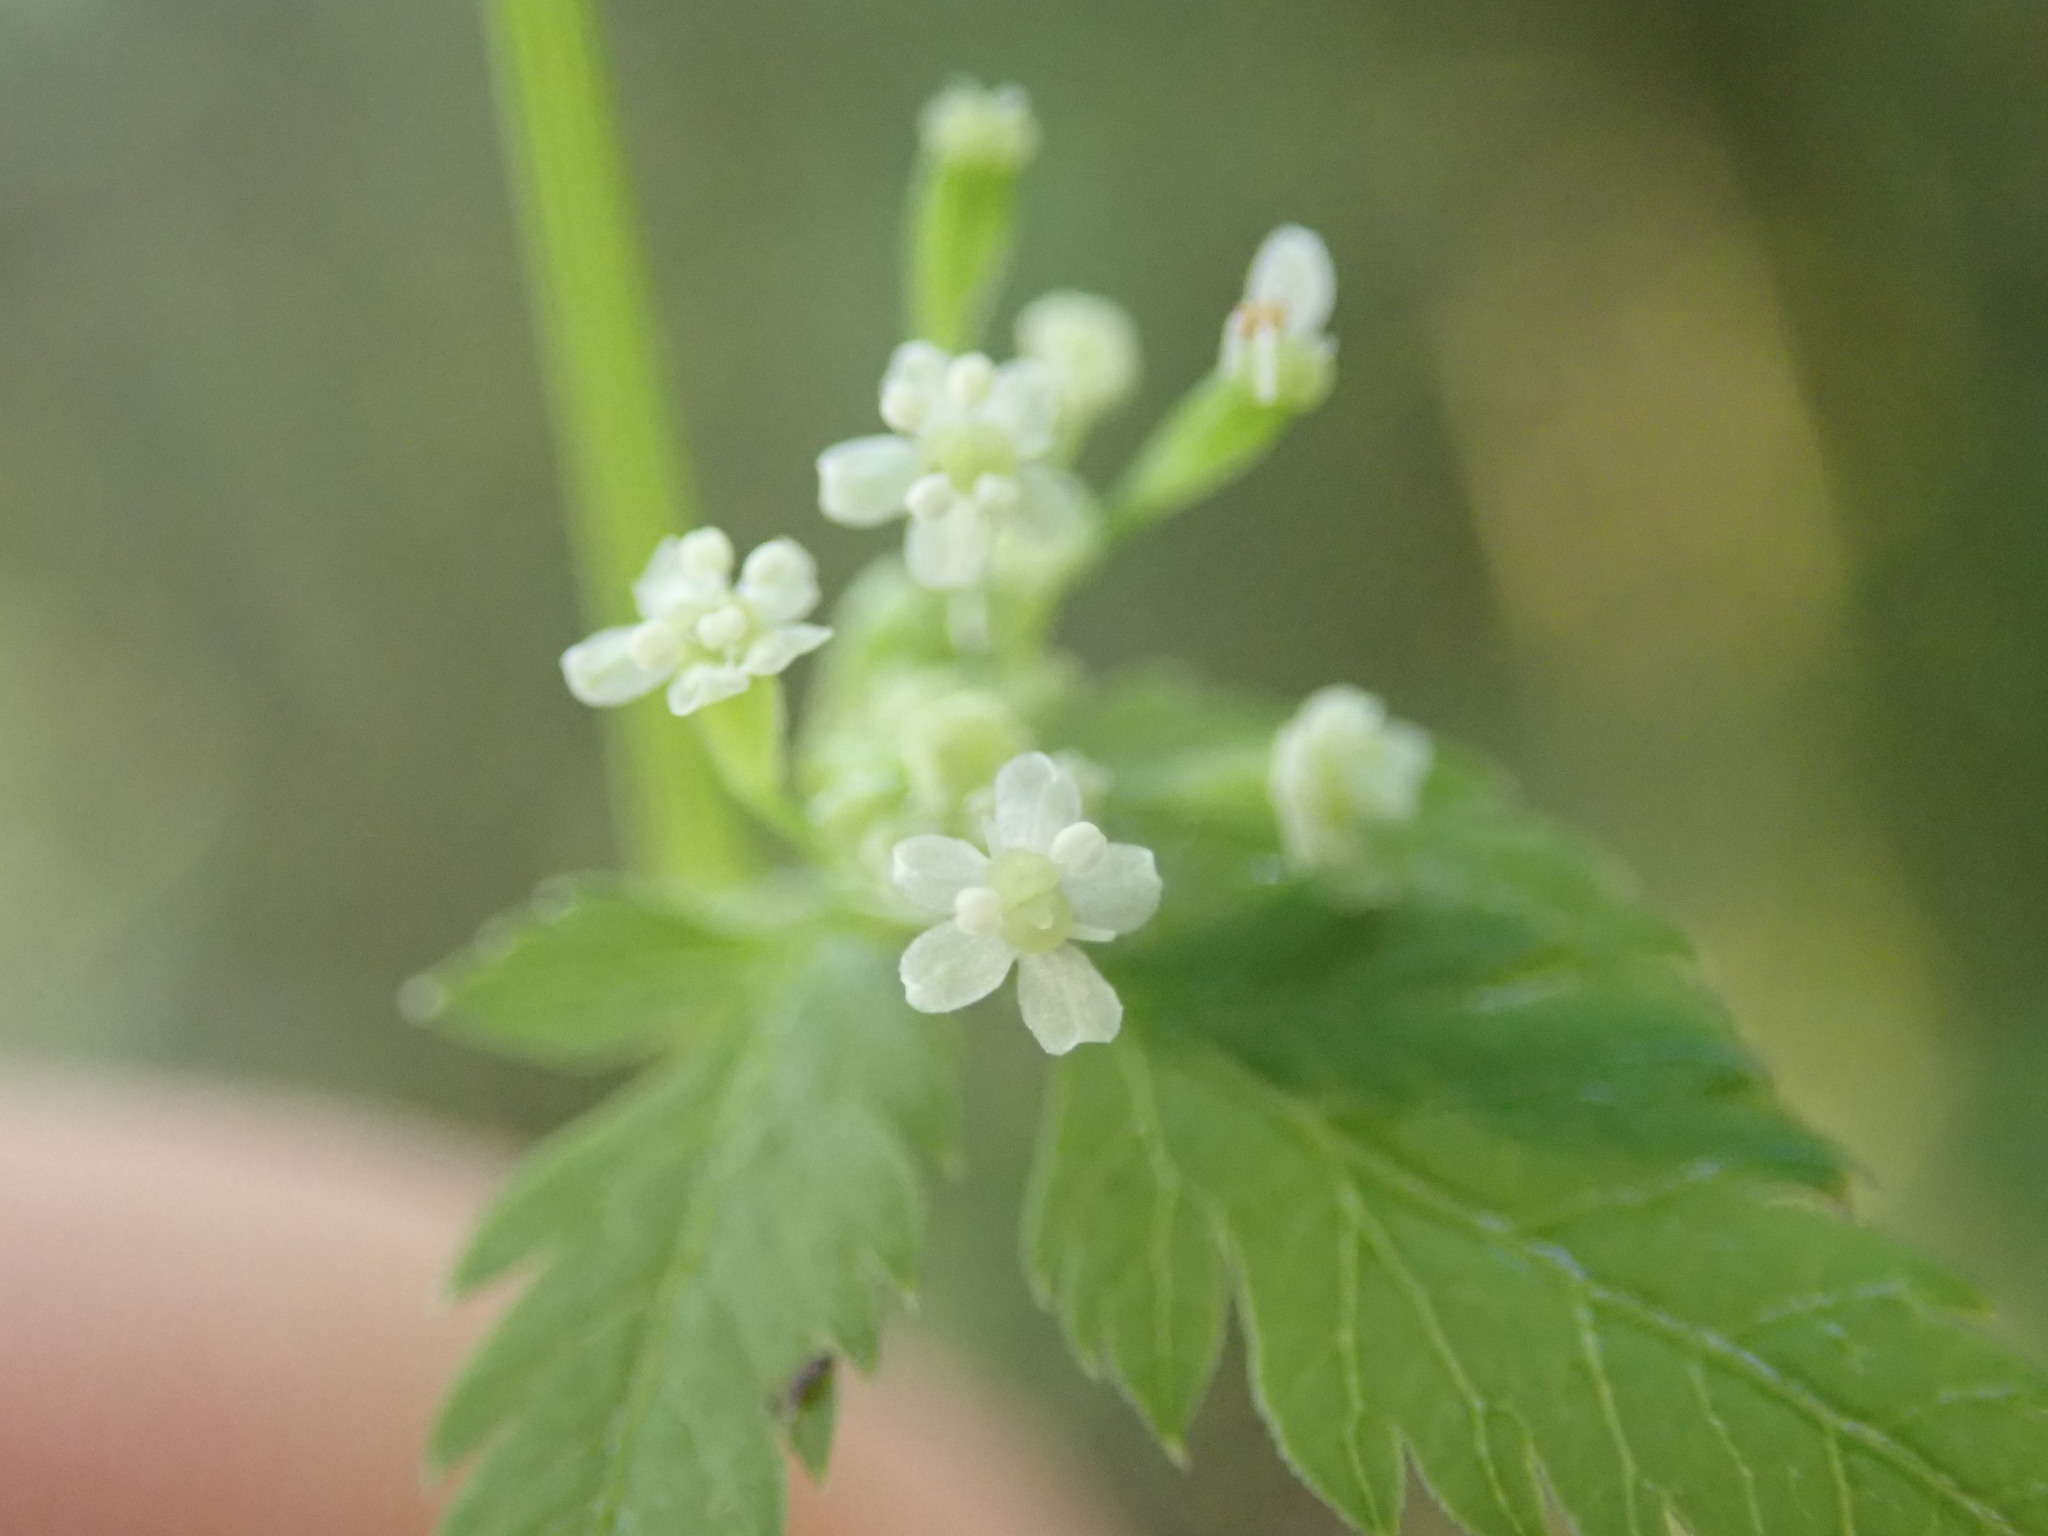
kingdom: Plantae
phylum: Tracheophyta
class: Magnoliopsida
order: Apiales
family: Apiaceae
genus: Osmorhiza
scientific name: Osmorhiza berteroi
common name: Mountain sweet cicely
